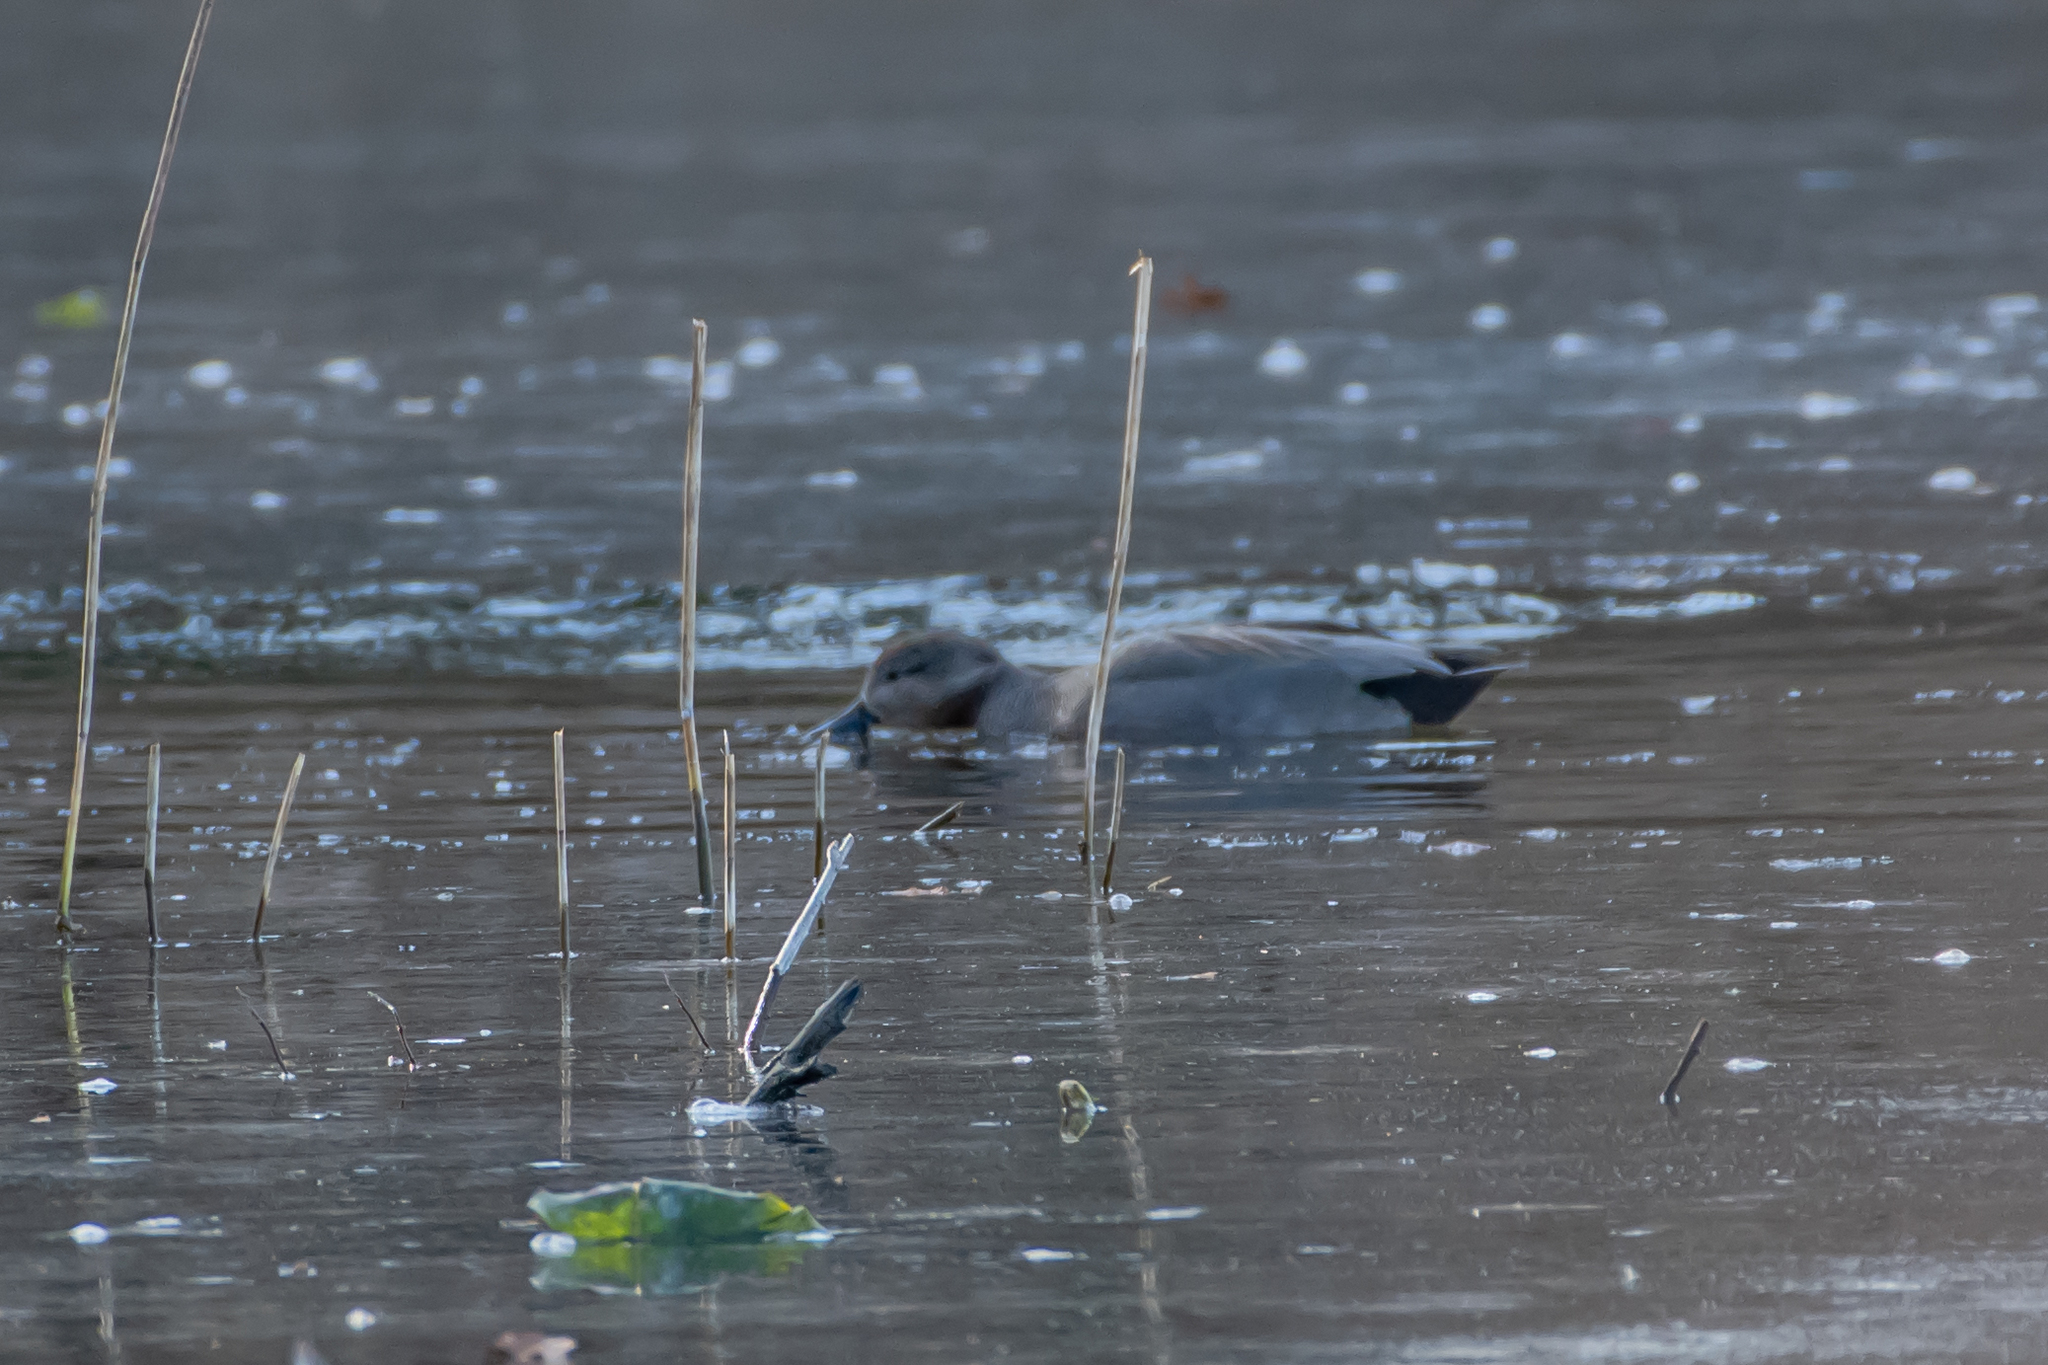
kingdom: Animalia
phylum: Chordata
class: Aves
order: Anseriformes
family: Anatidae
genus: Mareca
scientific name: Mareca strepera
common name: Gadwall
